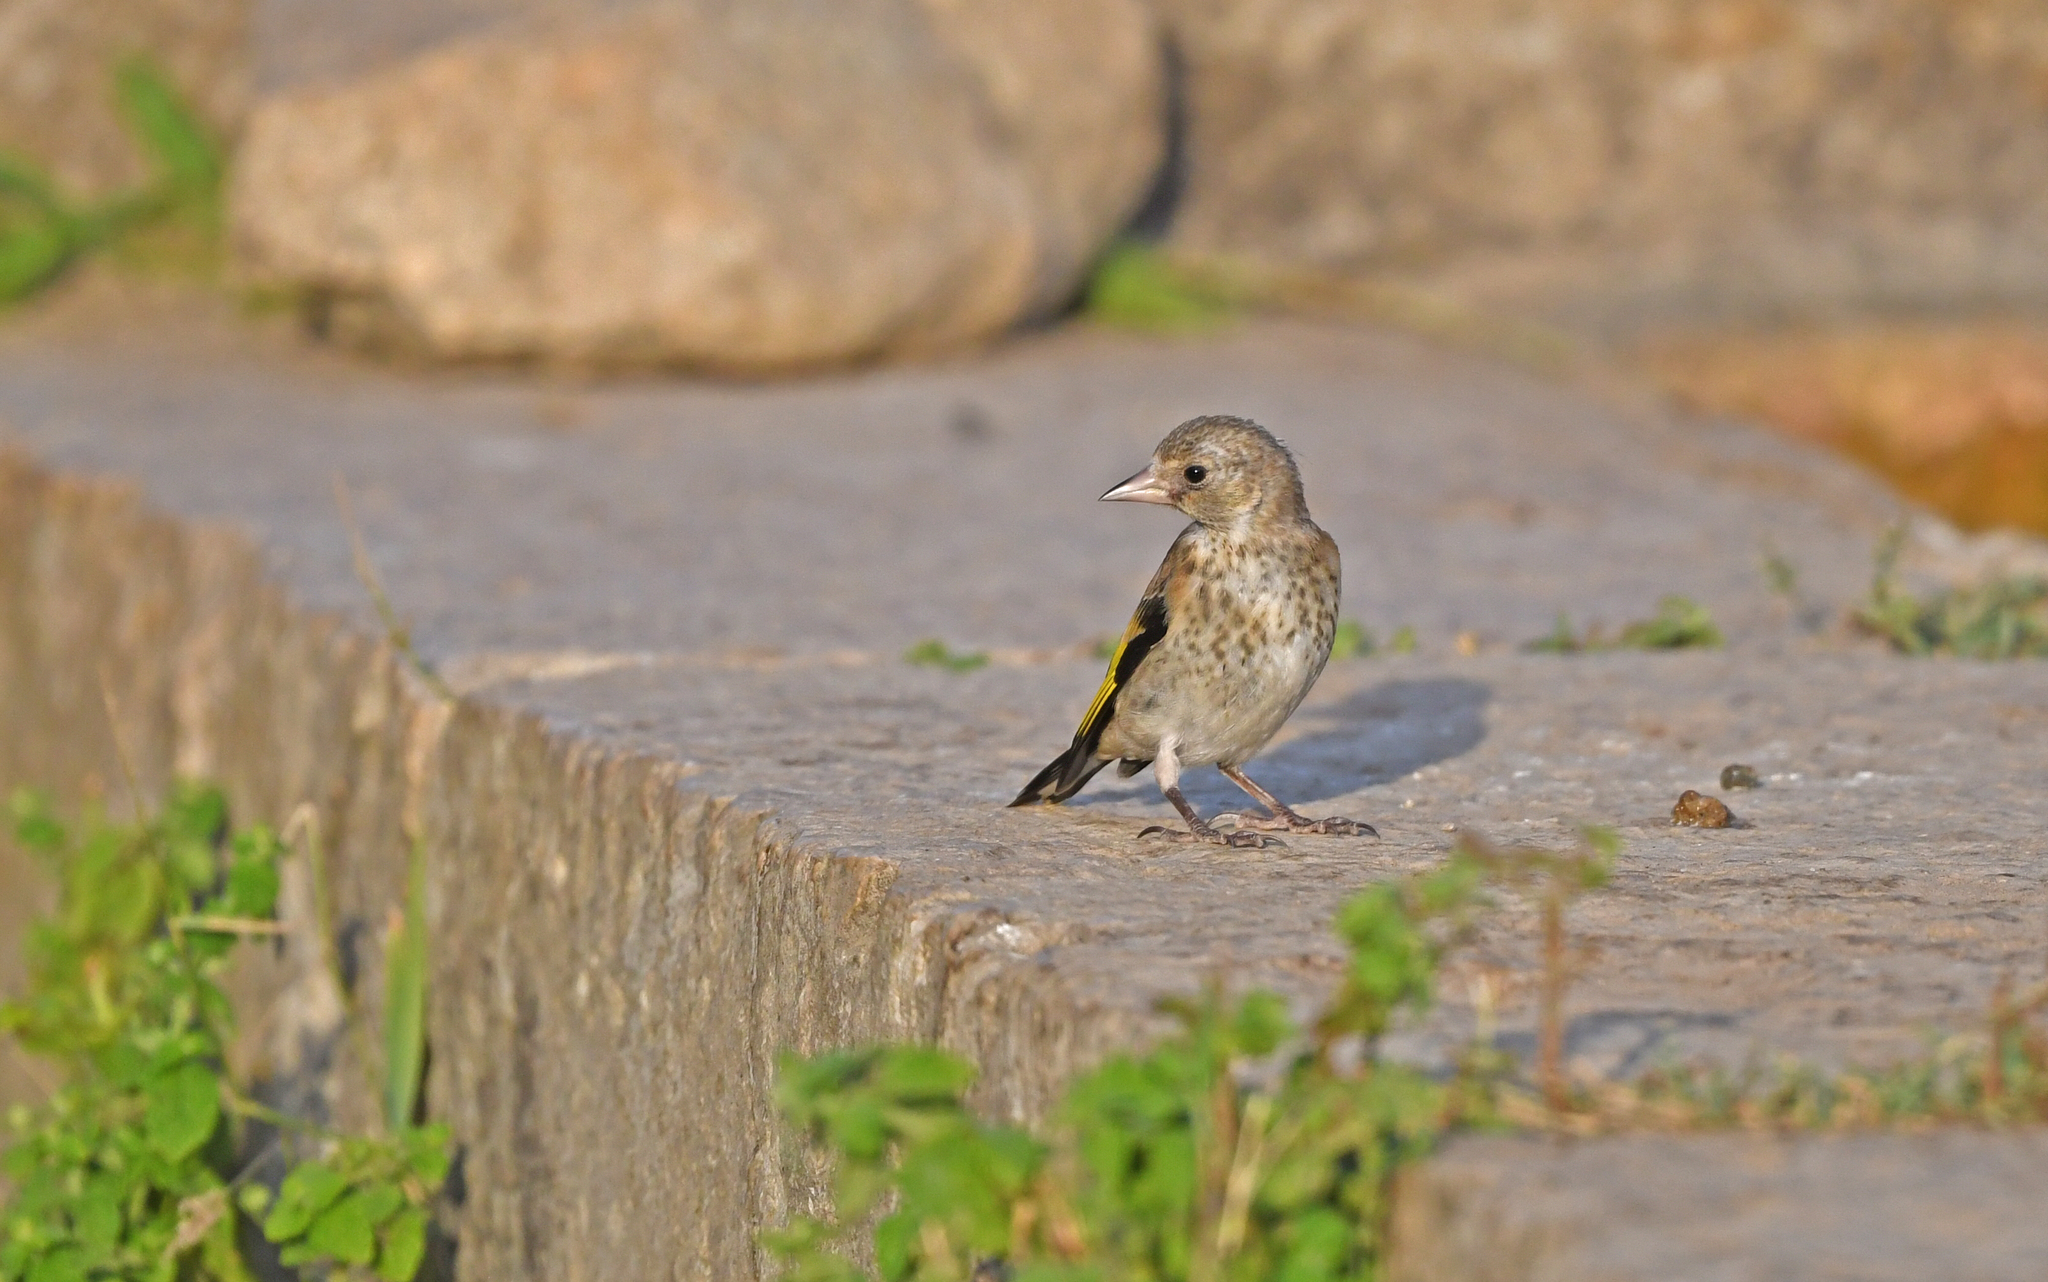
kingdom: Animalia
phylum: Chordata
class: Aves
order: Passeriformes
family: Fringillidae
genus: Carduelis
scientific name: Carduelis carduelis
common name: European goldfinch
